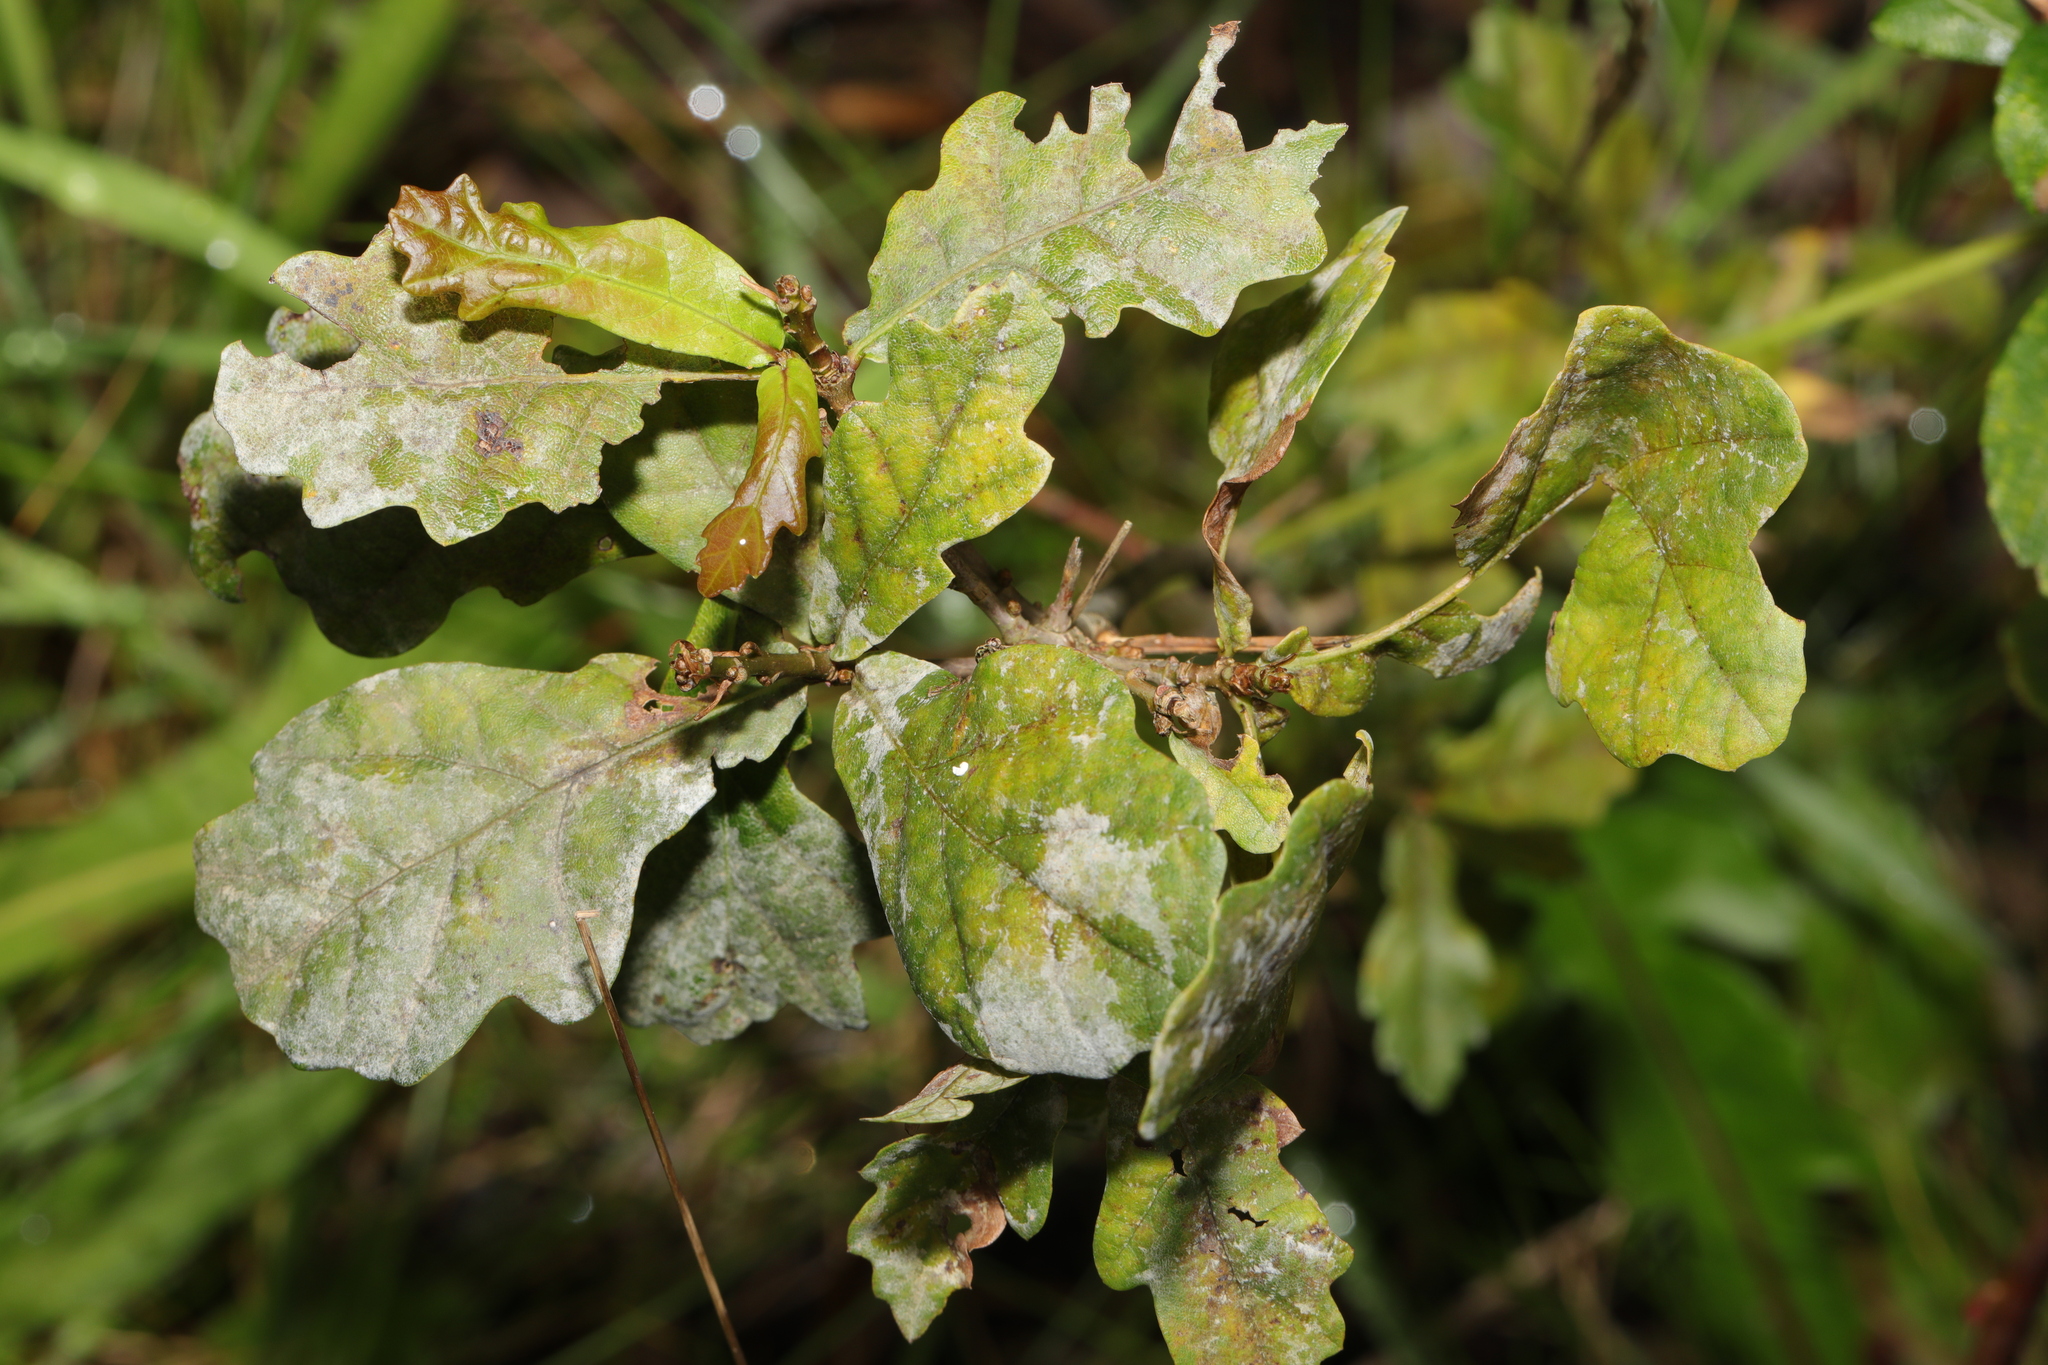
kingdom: Plantae
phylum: Tracheophyta
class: Magnoliopsida
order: Fagales
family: Fagaceae
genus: Quercus
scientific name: Quercus robur
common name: Pedunculate oak
